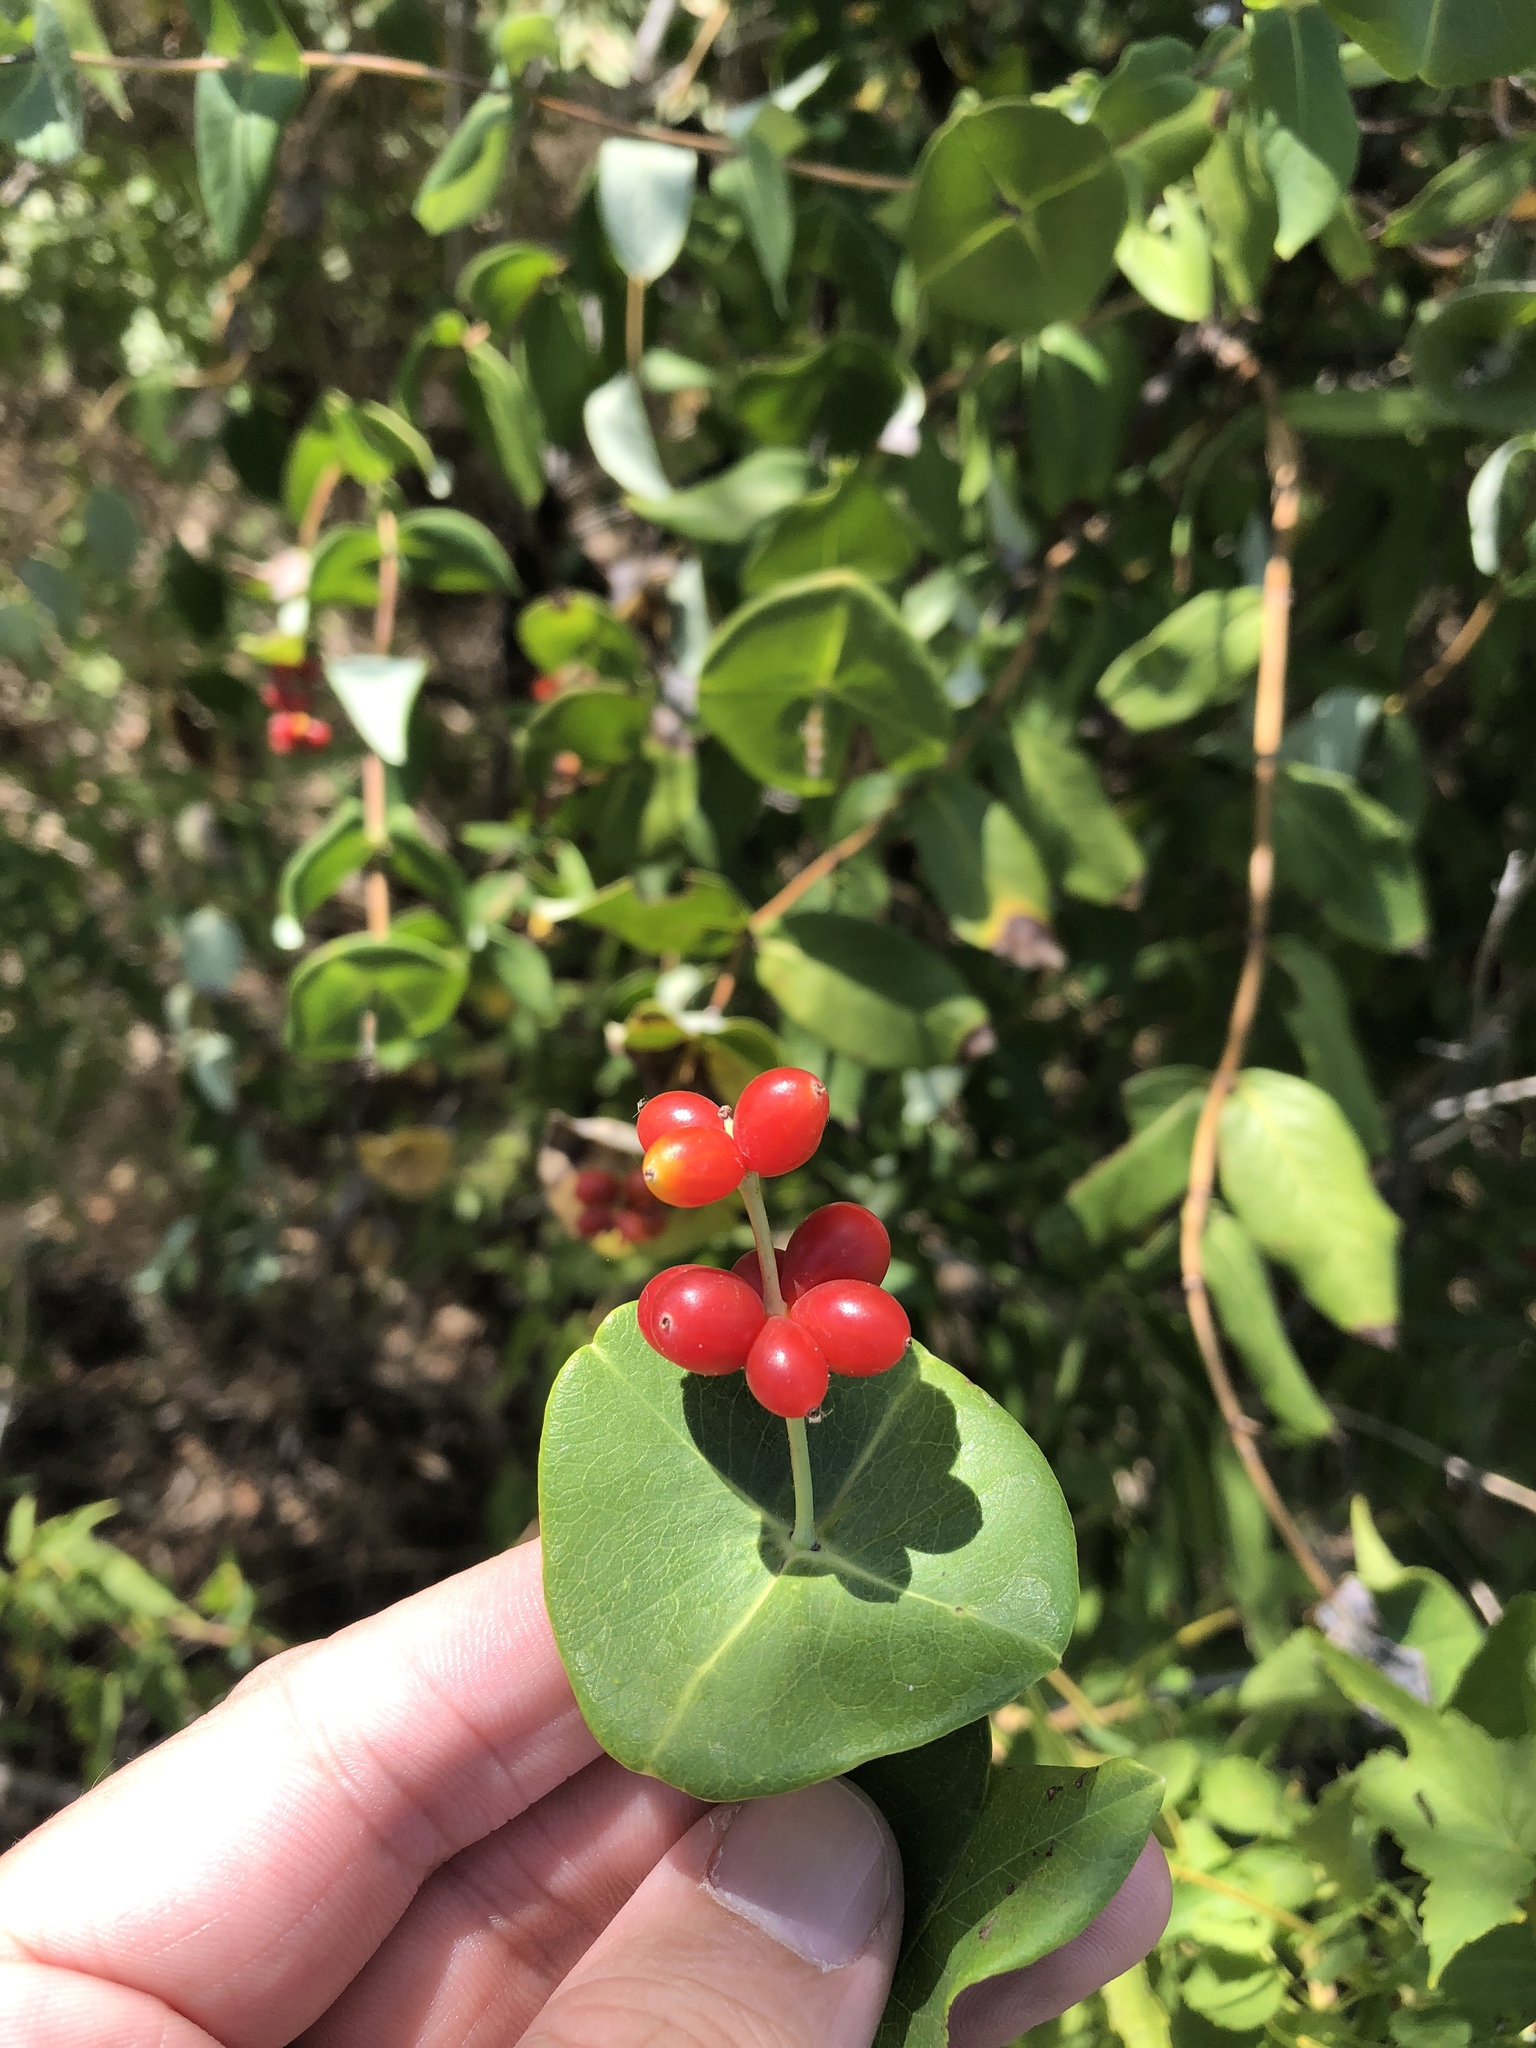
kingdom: Plantae
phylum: Tracheophyta
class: Magnoliopsida
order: Dipsacales
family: Caprifoliaceae
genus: Lonicera
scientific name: Lonicera sempervirens
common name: Coral honeysuckle
